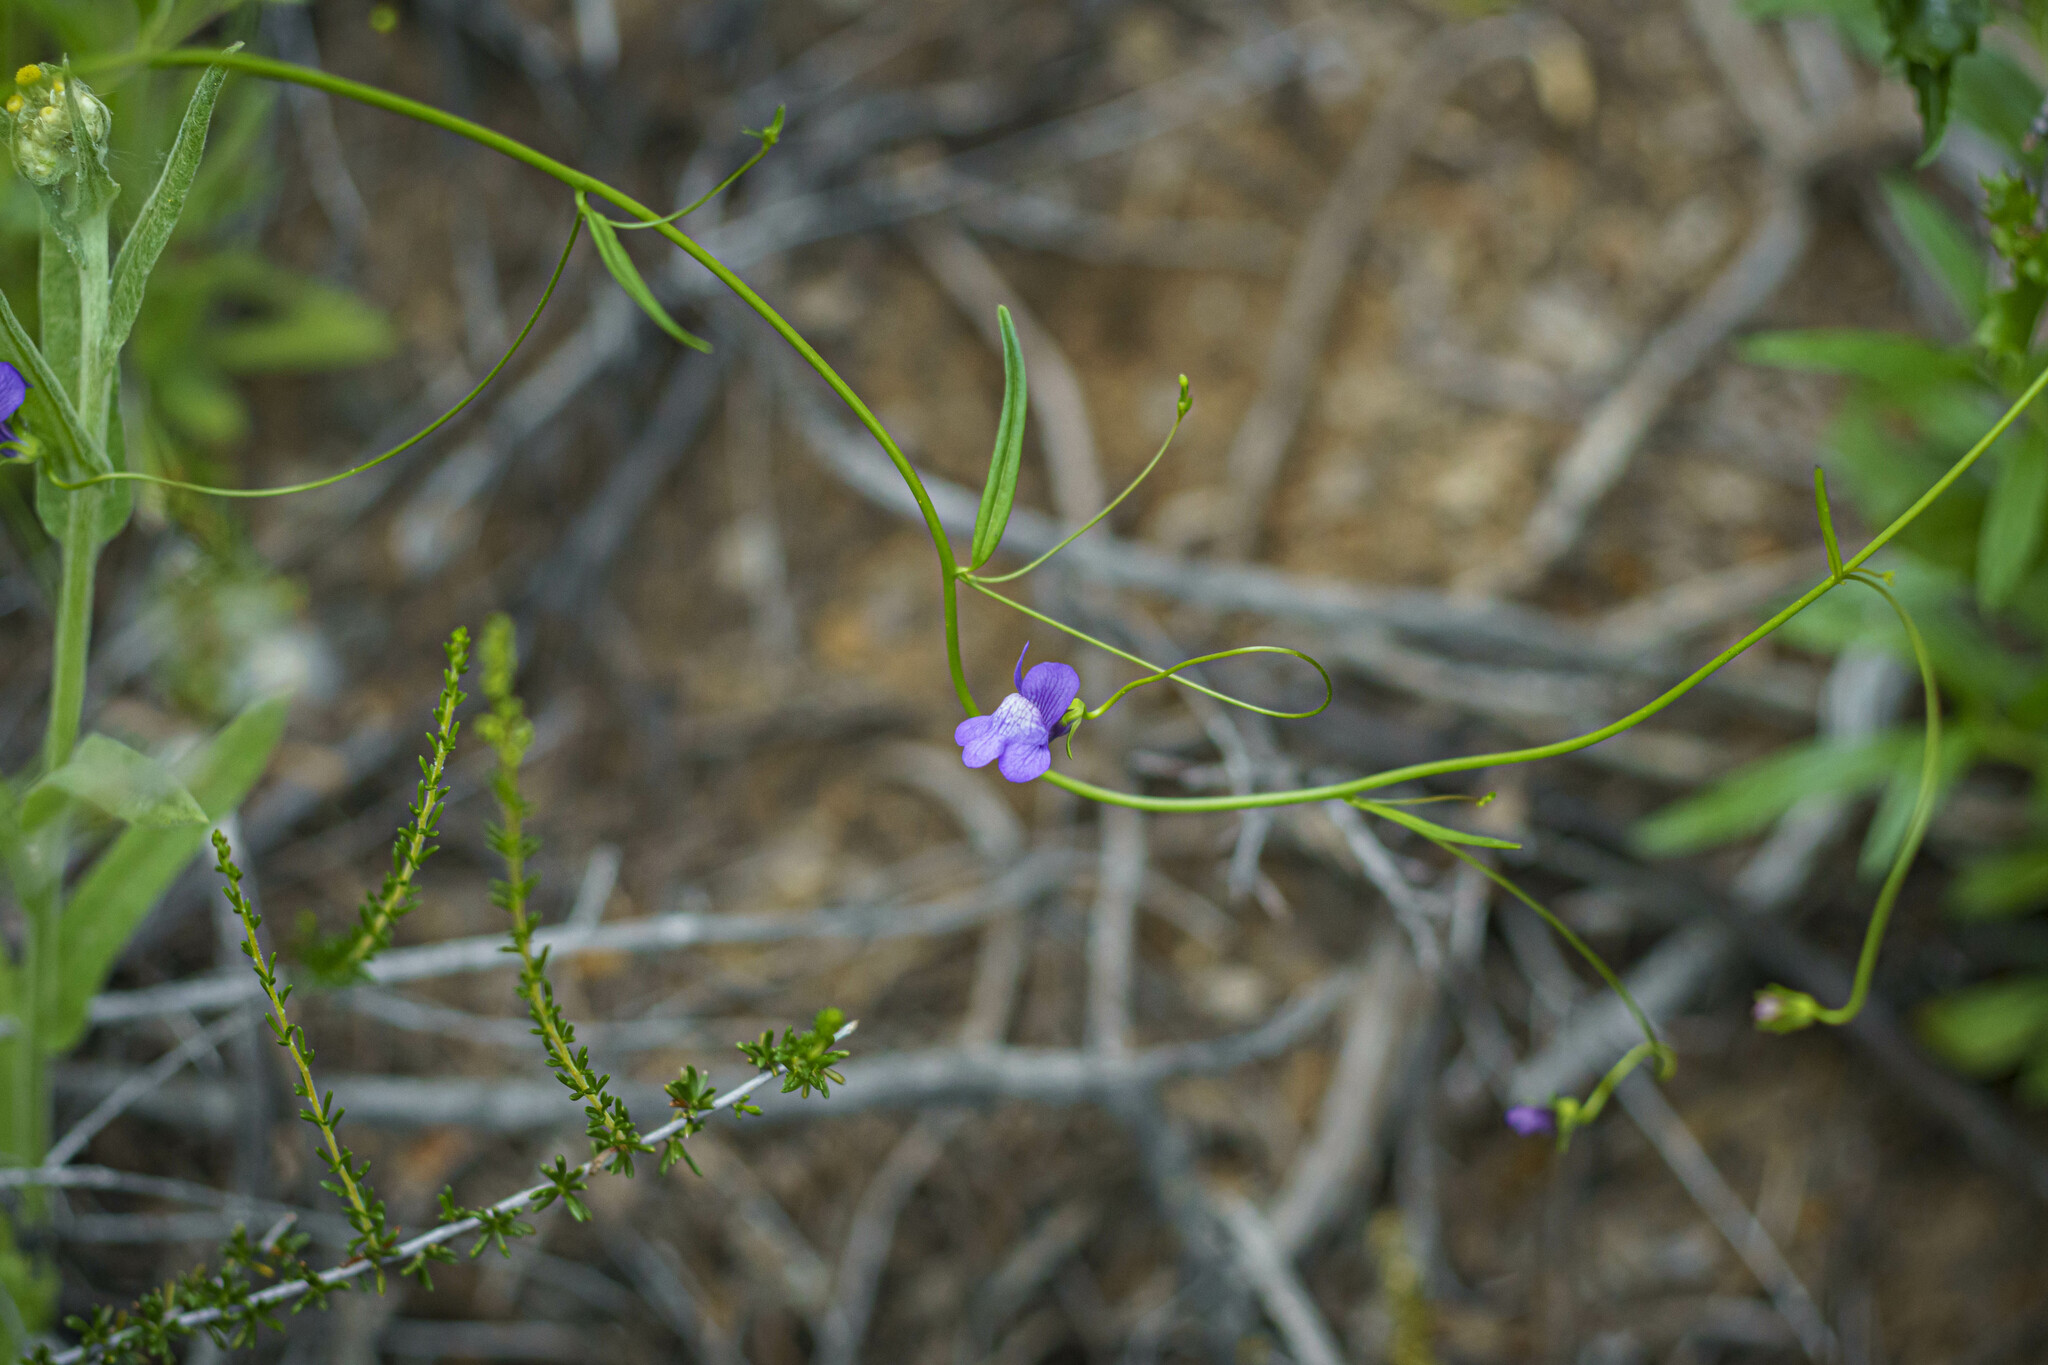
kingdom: Plantae
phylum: Tracheophyta
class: Magnoliopsida
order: Lamiales
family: Plantaginaceae
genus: Neogaerrhinum
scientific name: Neogaerrhinum strictum
